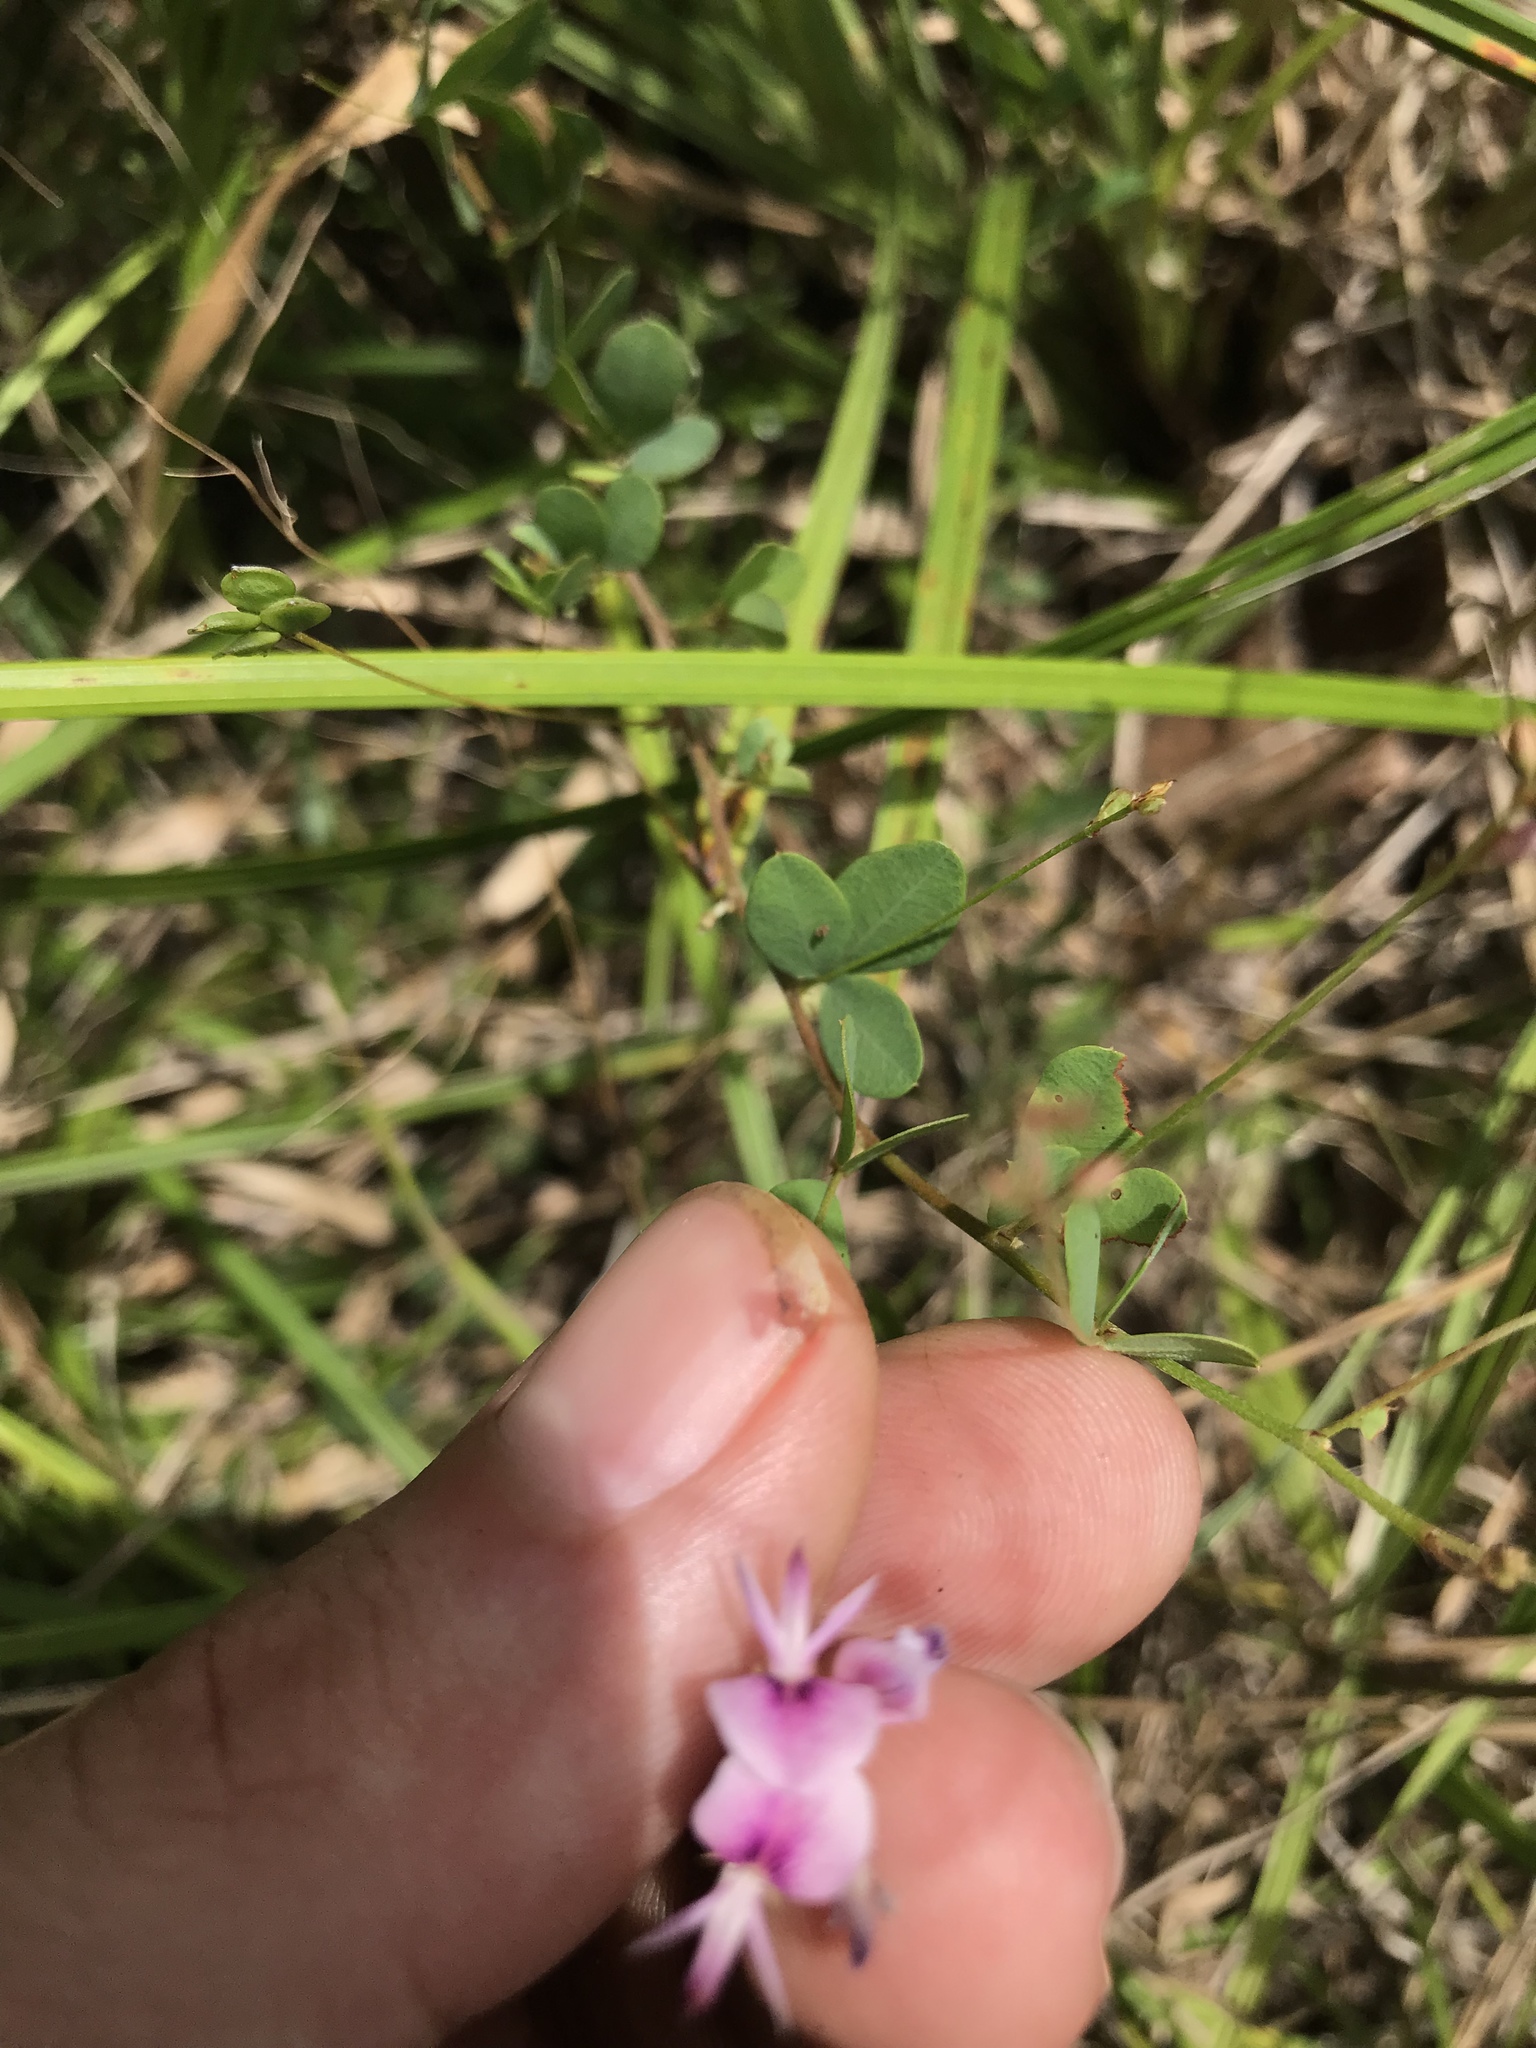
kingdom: Plantae
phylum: Tracheophyta
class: Magnoliopsida
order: Fabales
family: Fabaceae
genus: Lespedeza
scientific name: Lespedeza repens
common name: Creeping bush-clover
